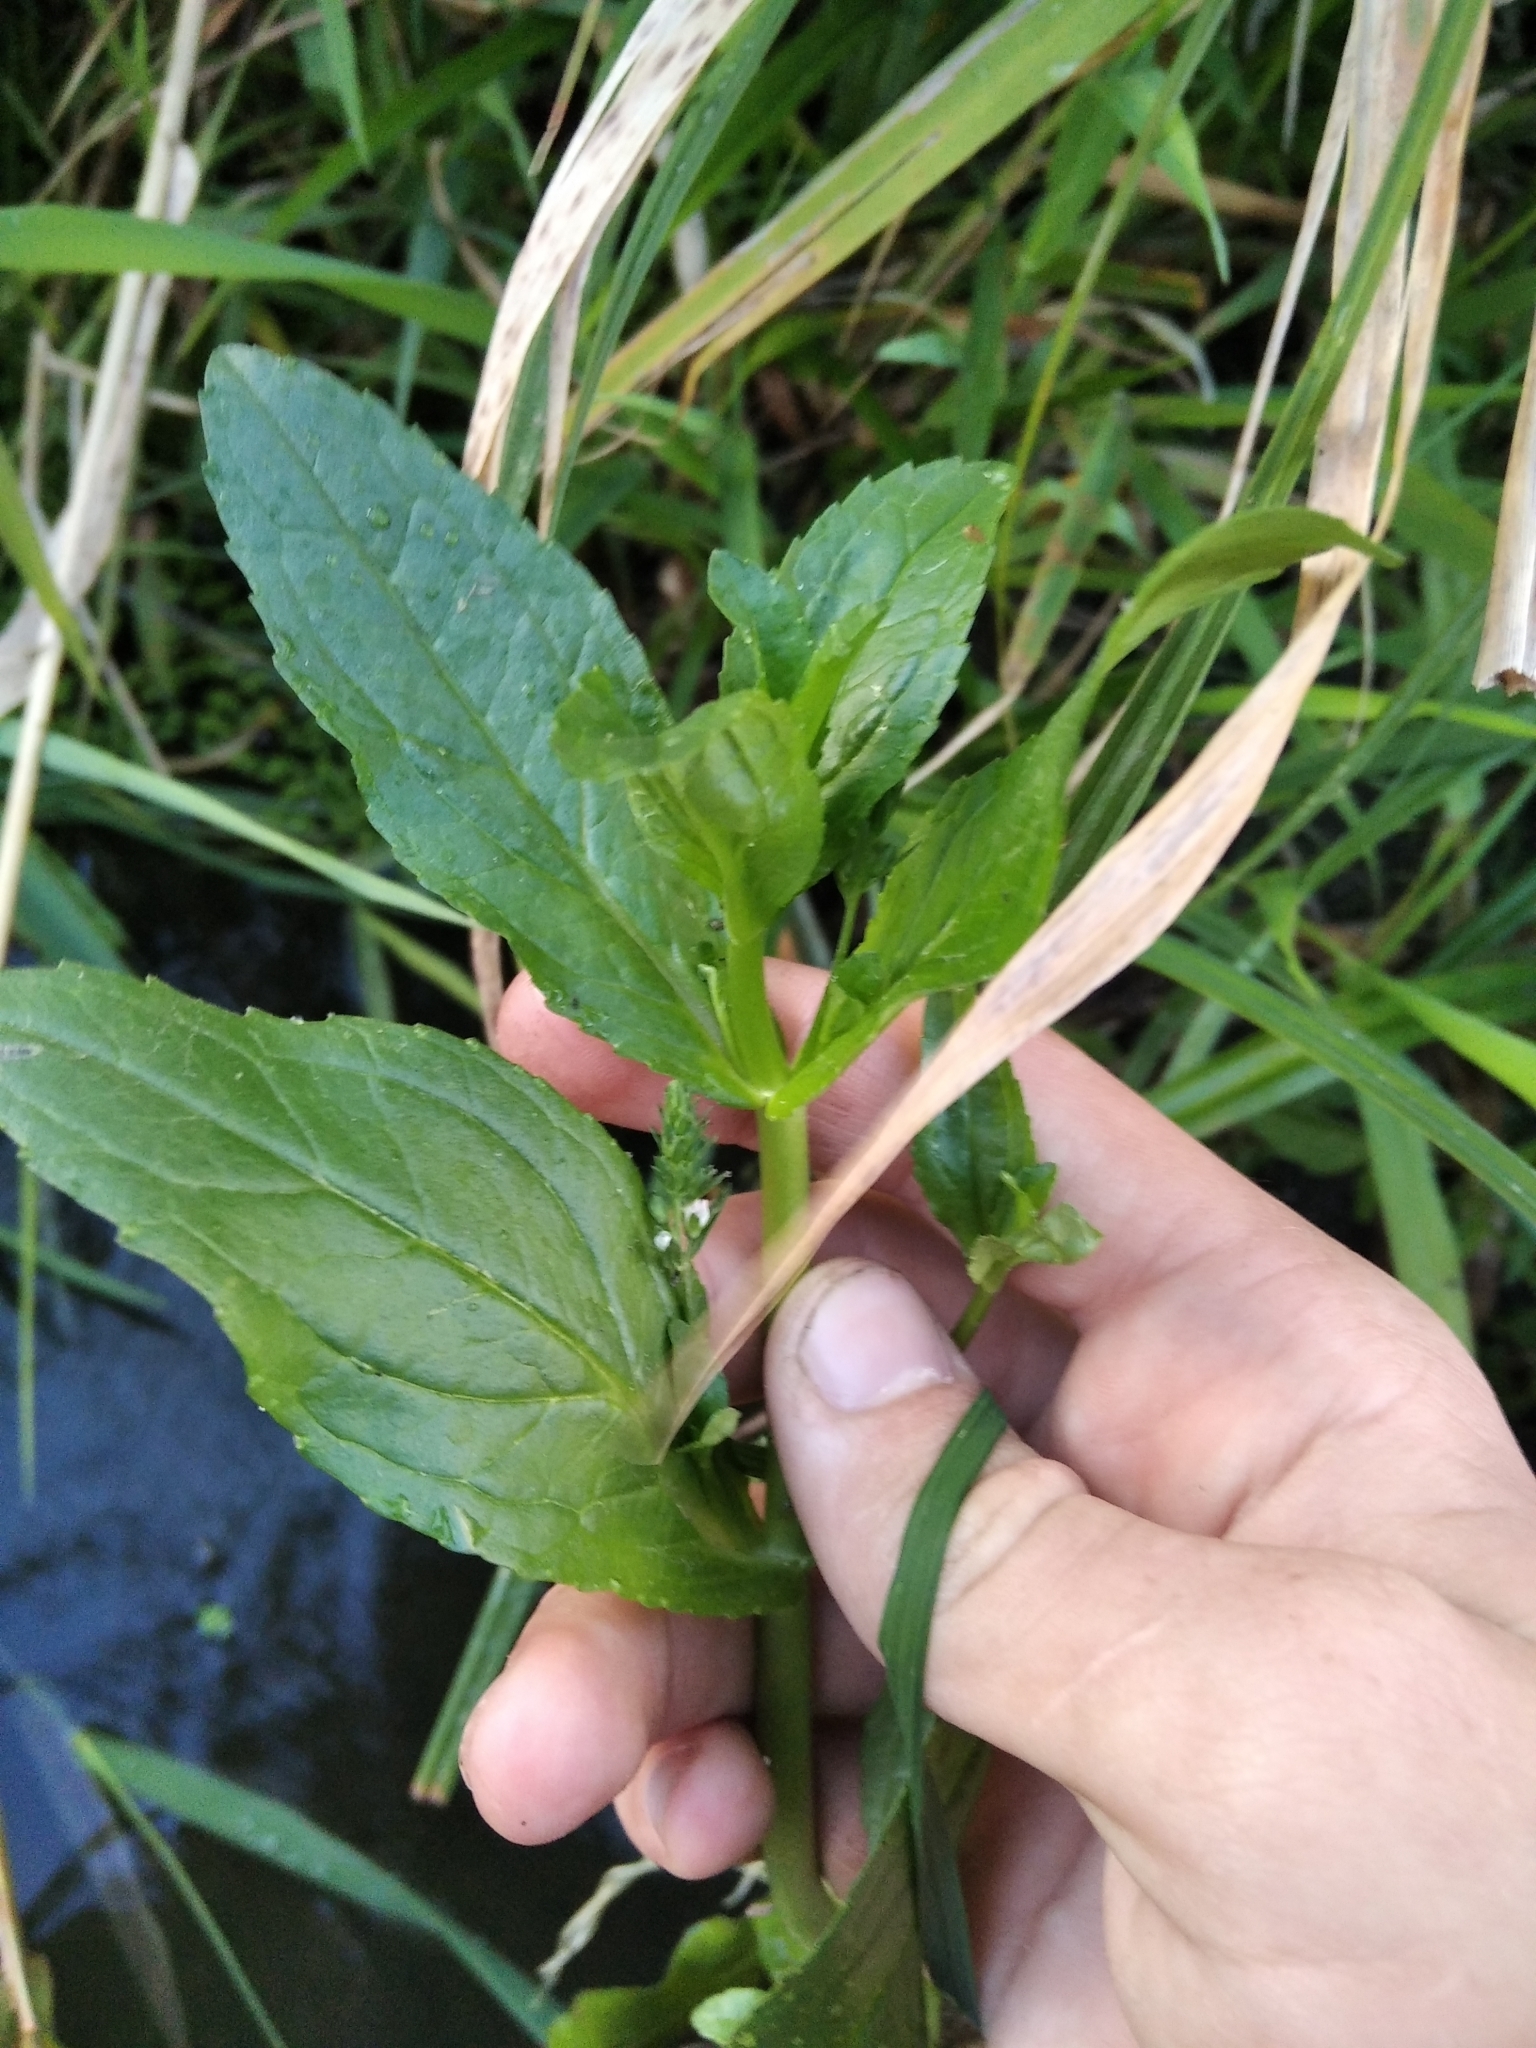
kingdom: Plantae
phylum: Tracheophyta
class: Magnoliopsida
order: Lamiales
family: Plantaginaceae
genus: Veronica
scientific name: Veronica anagallis-aquatica
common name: Water speedwell
